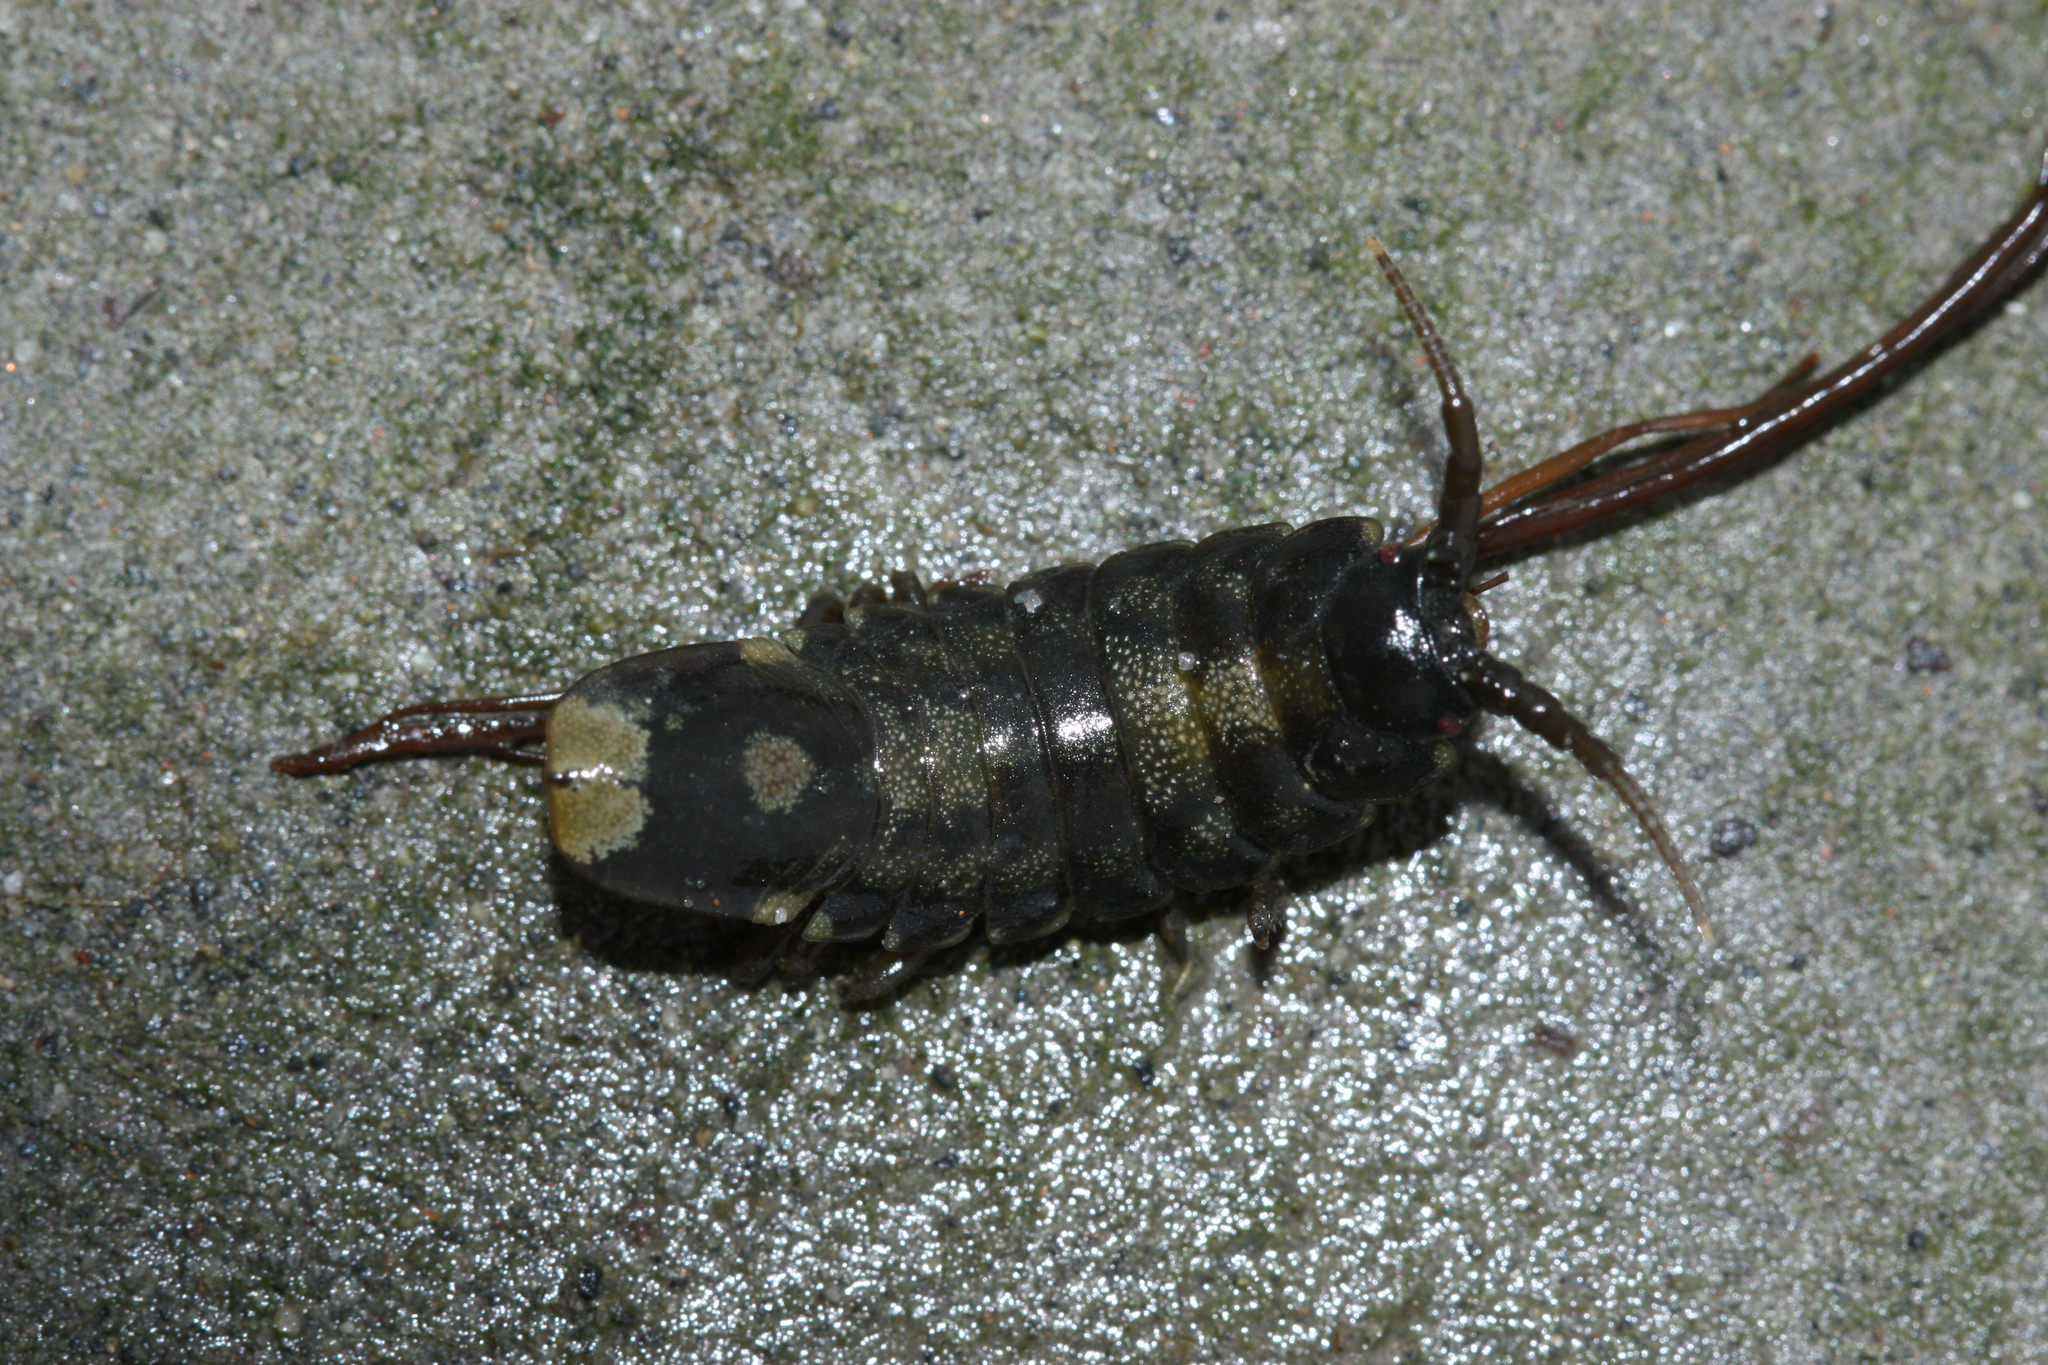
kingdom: Animalia
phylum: Arthropoda
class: Malacostraca
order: Isopoda
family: Idoteidae
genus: Pentidotea
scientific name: Pentidotea wosnesenskii
